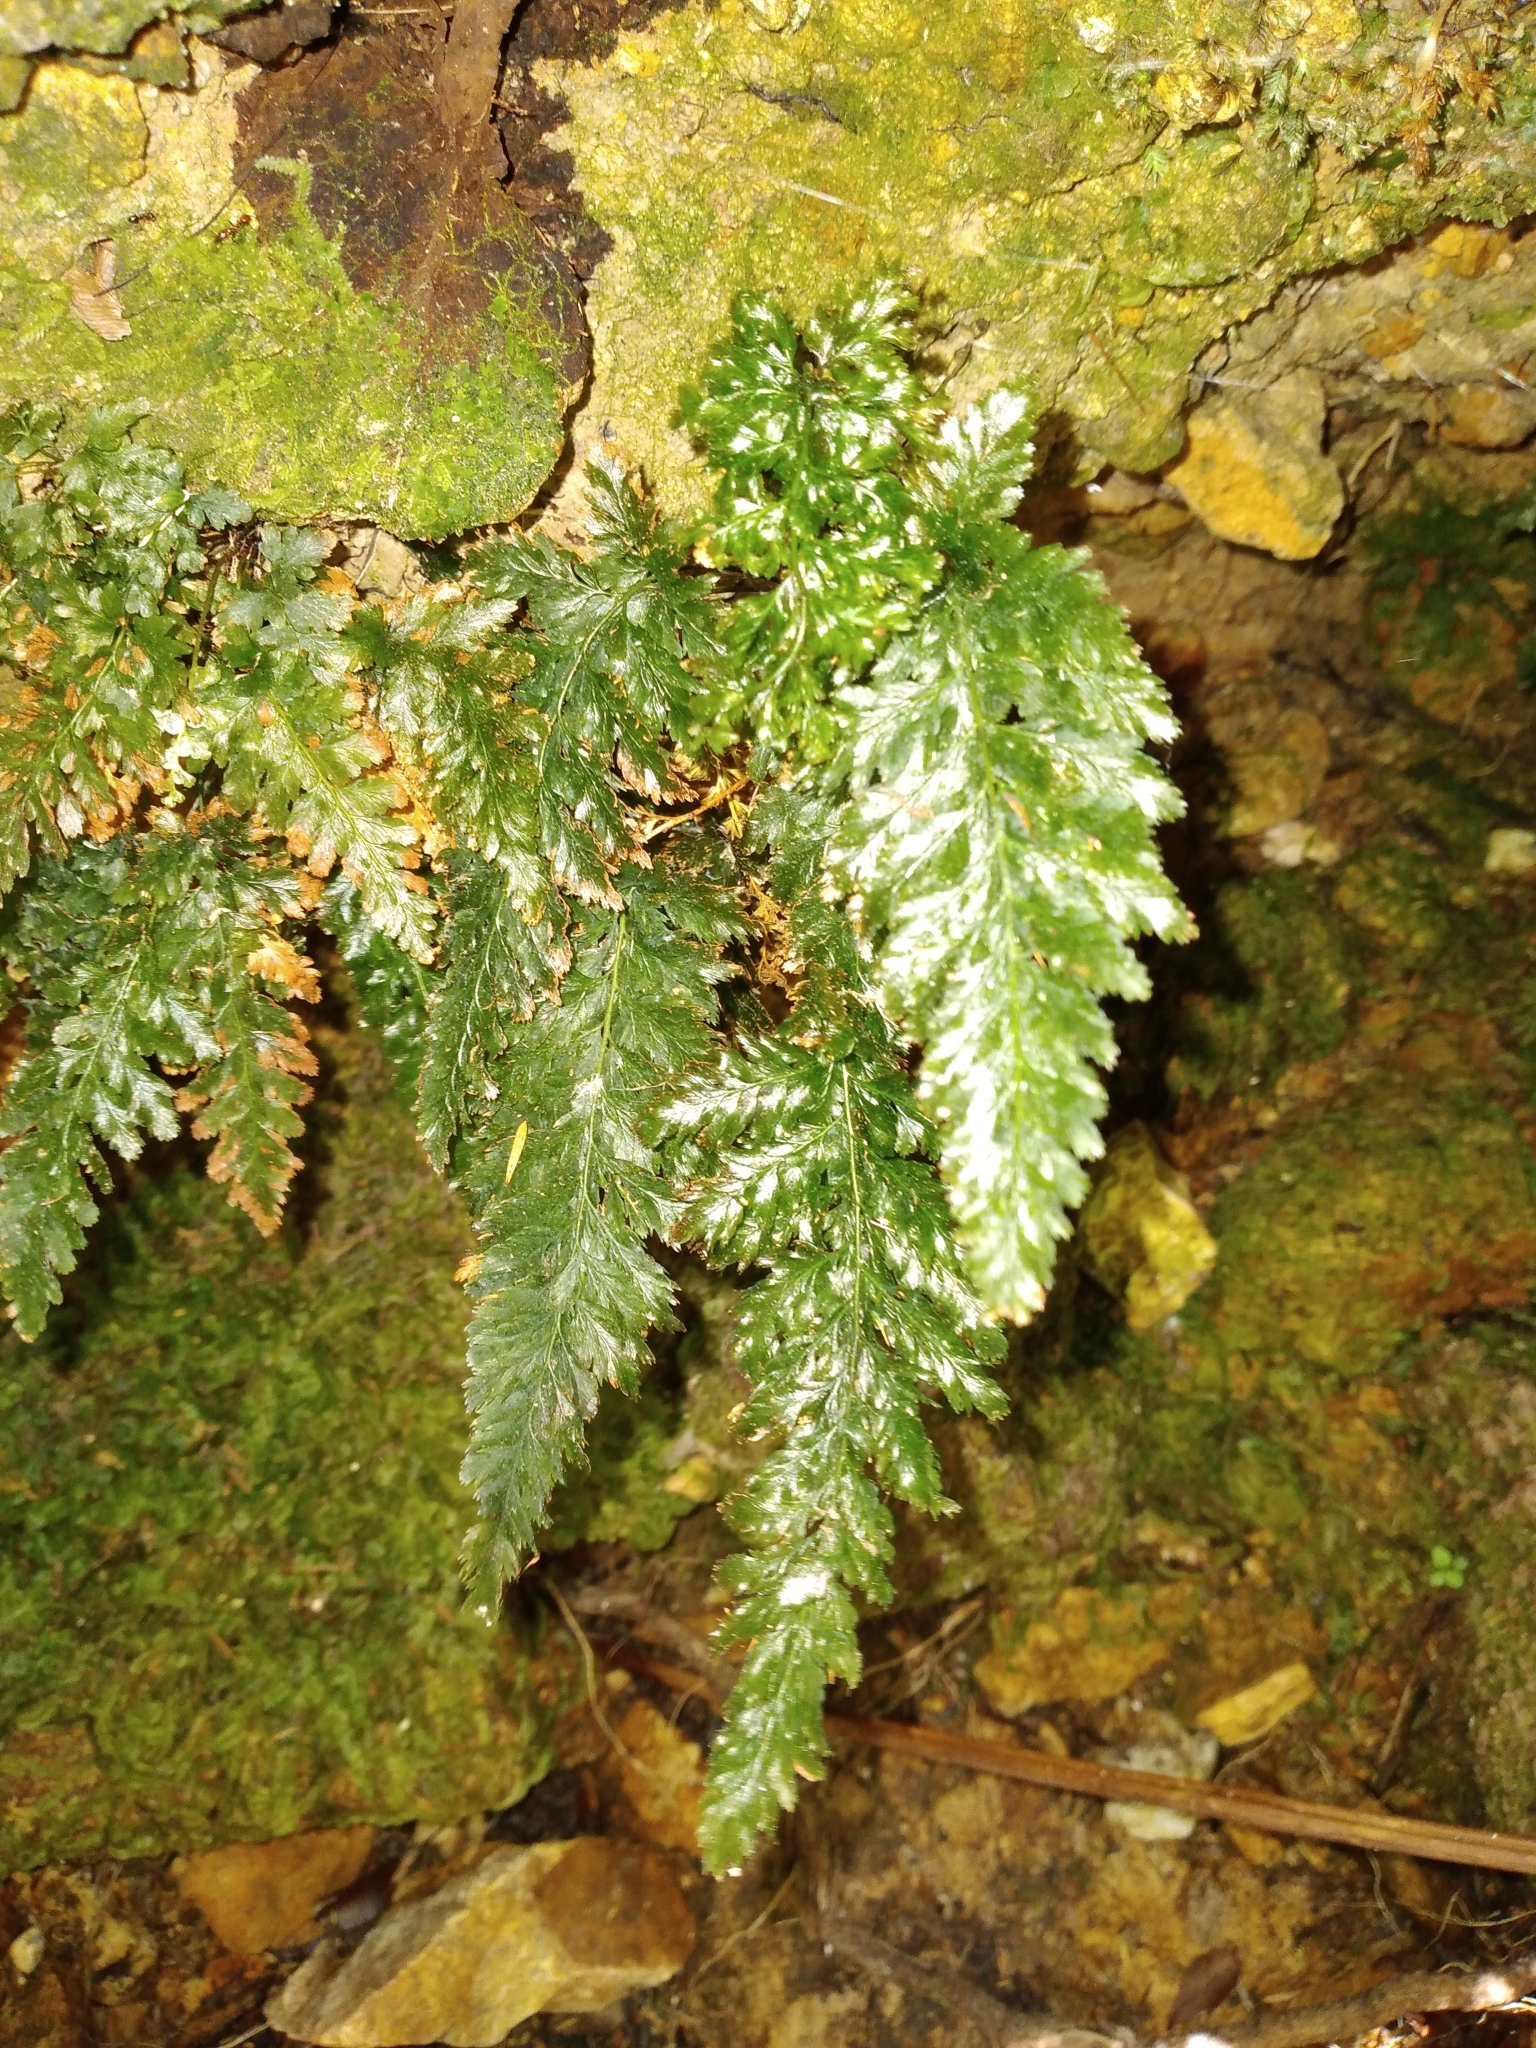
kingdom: Plantae
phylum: Tracheophyta
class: Polypodiopsida
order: Hymenophyllales
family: Hymenophyllaceae
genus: Abrodictyum
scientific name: Abrodictyum elongatum
